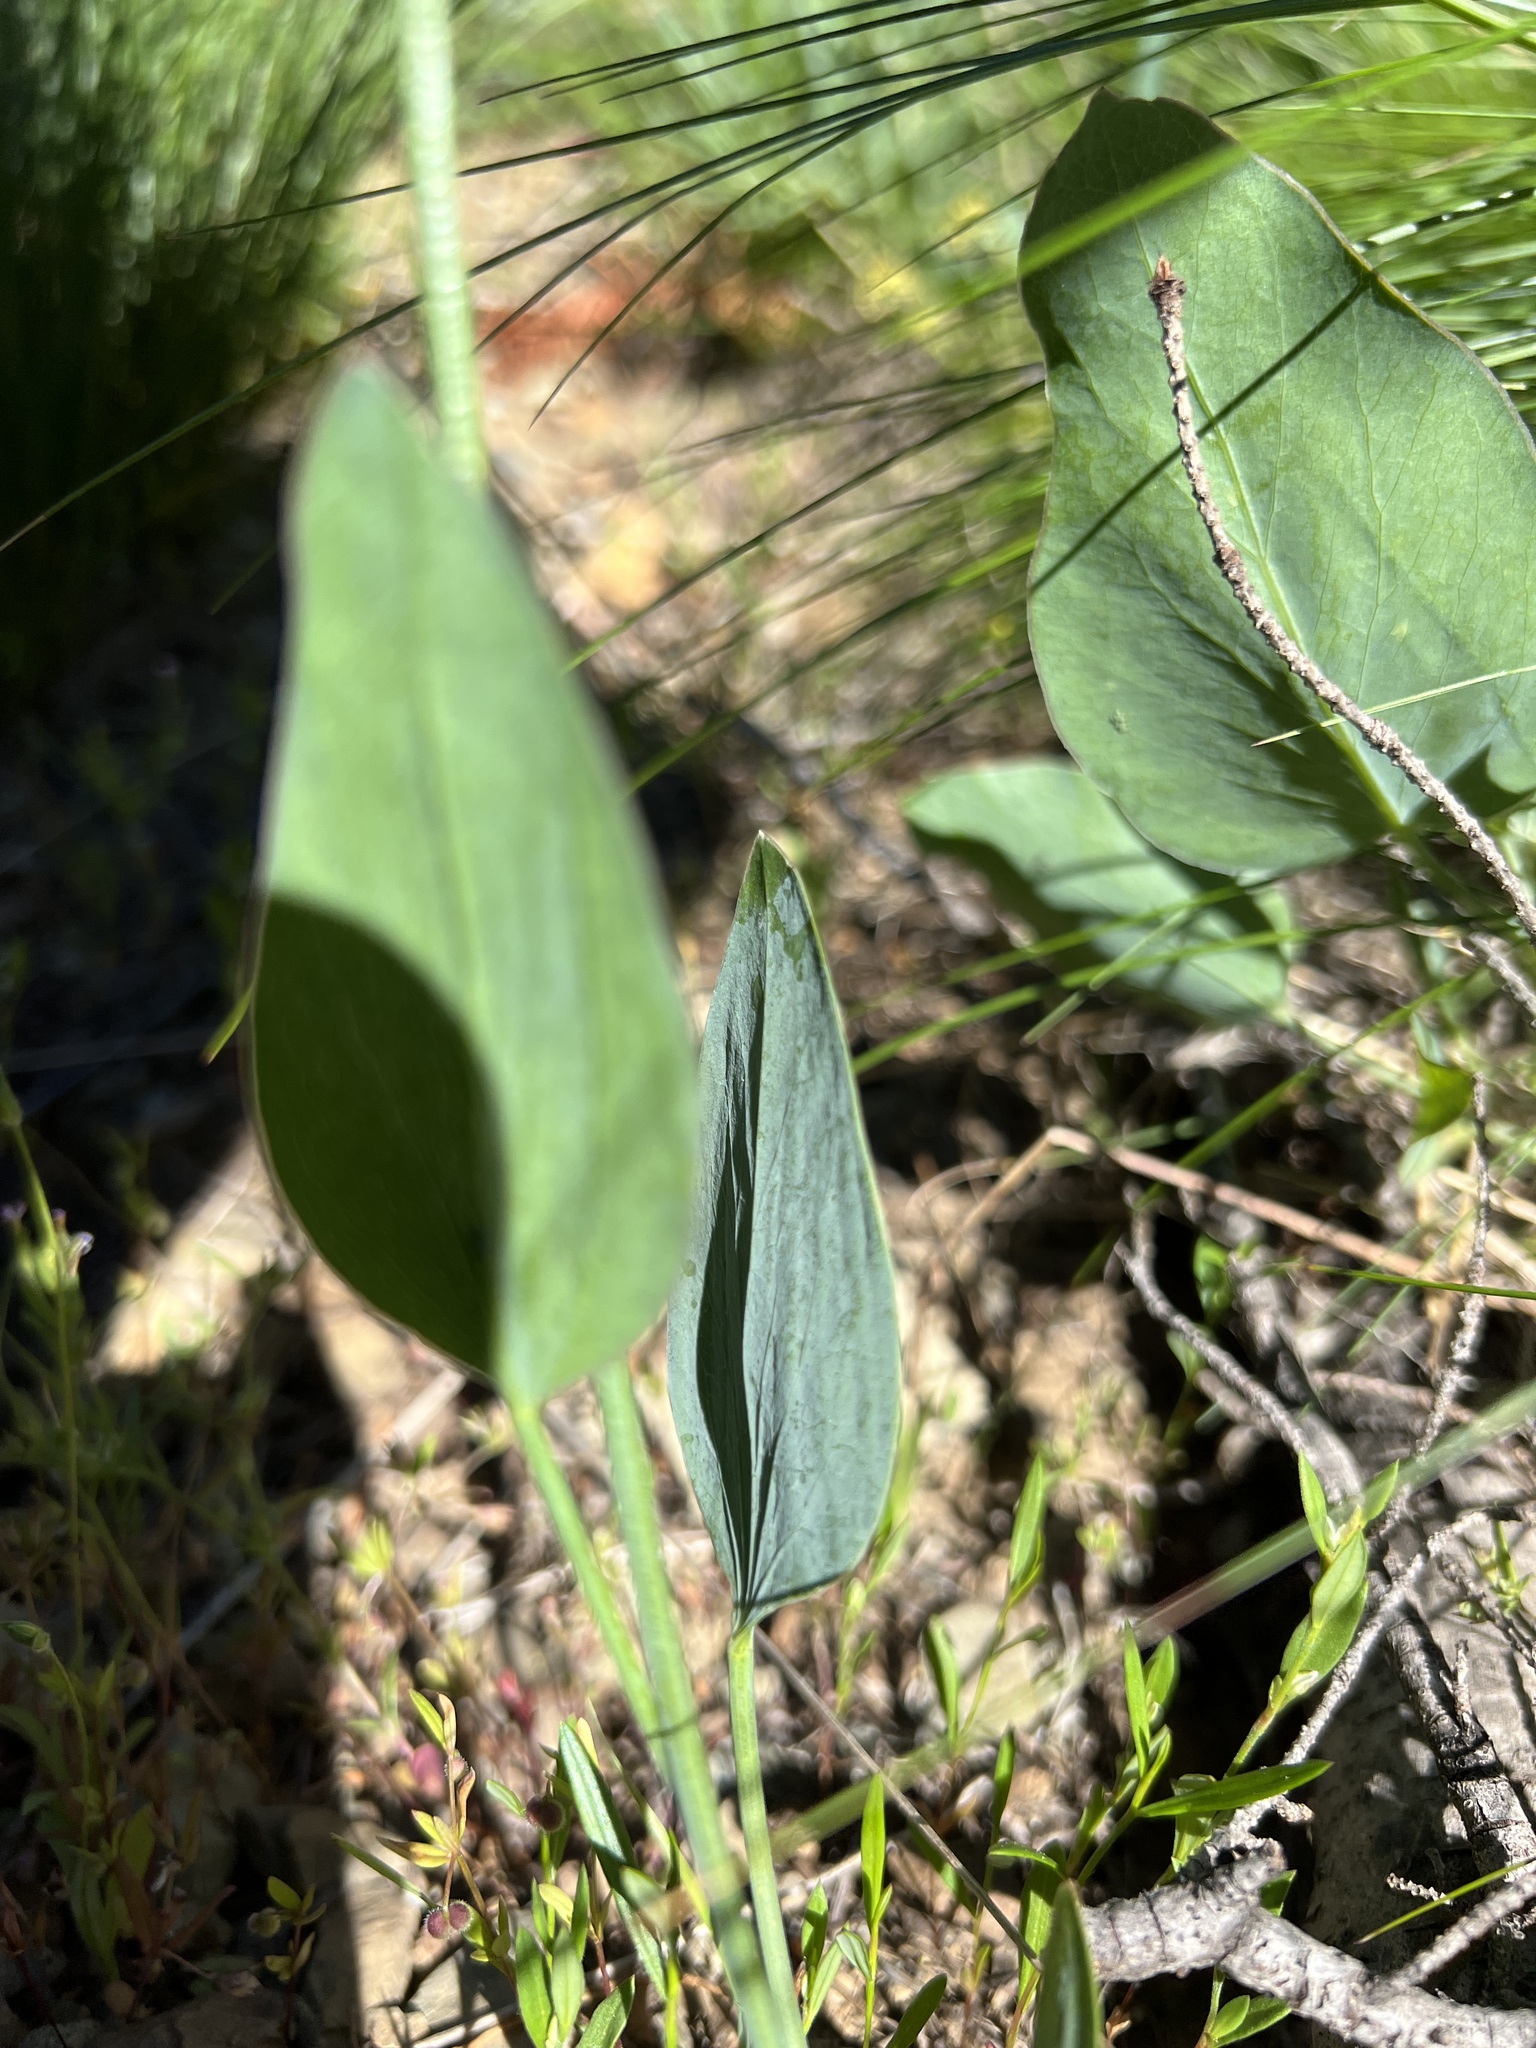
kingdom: Plantae
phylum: Tracheophyta
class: Magnoliopsida
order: Apiales
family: Apiaceae
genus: Lomatium
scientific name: Lomatium nudicaule
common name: Pestle lomatium
